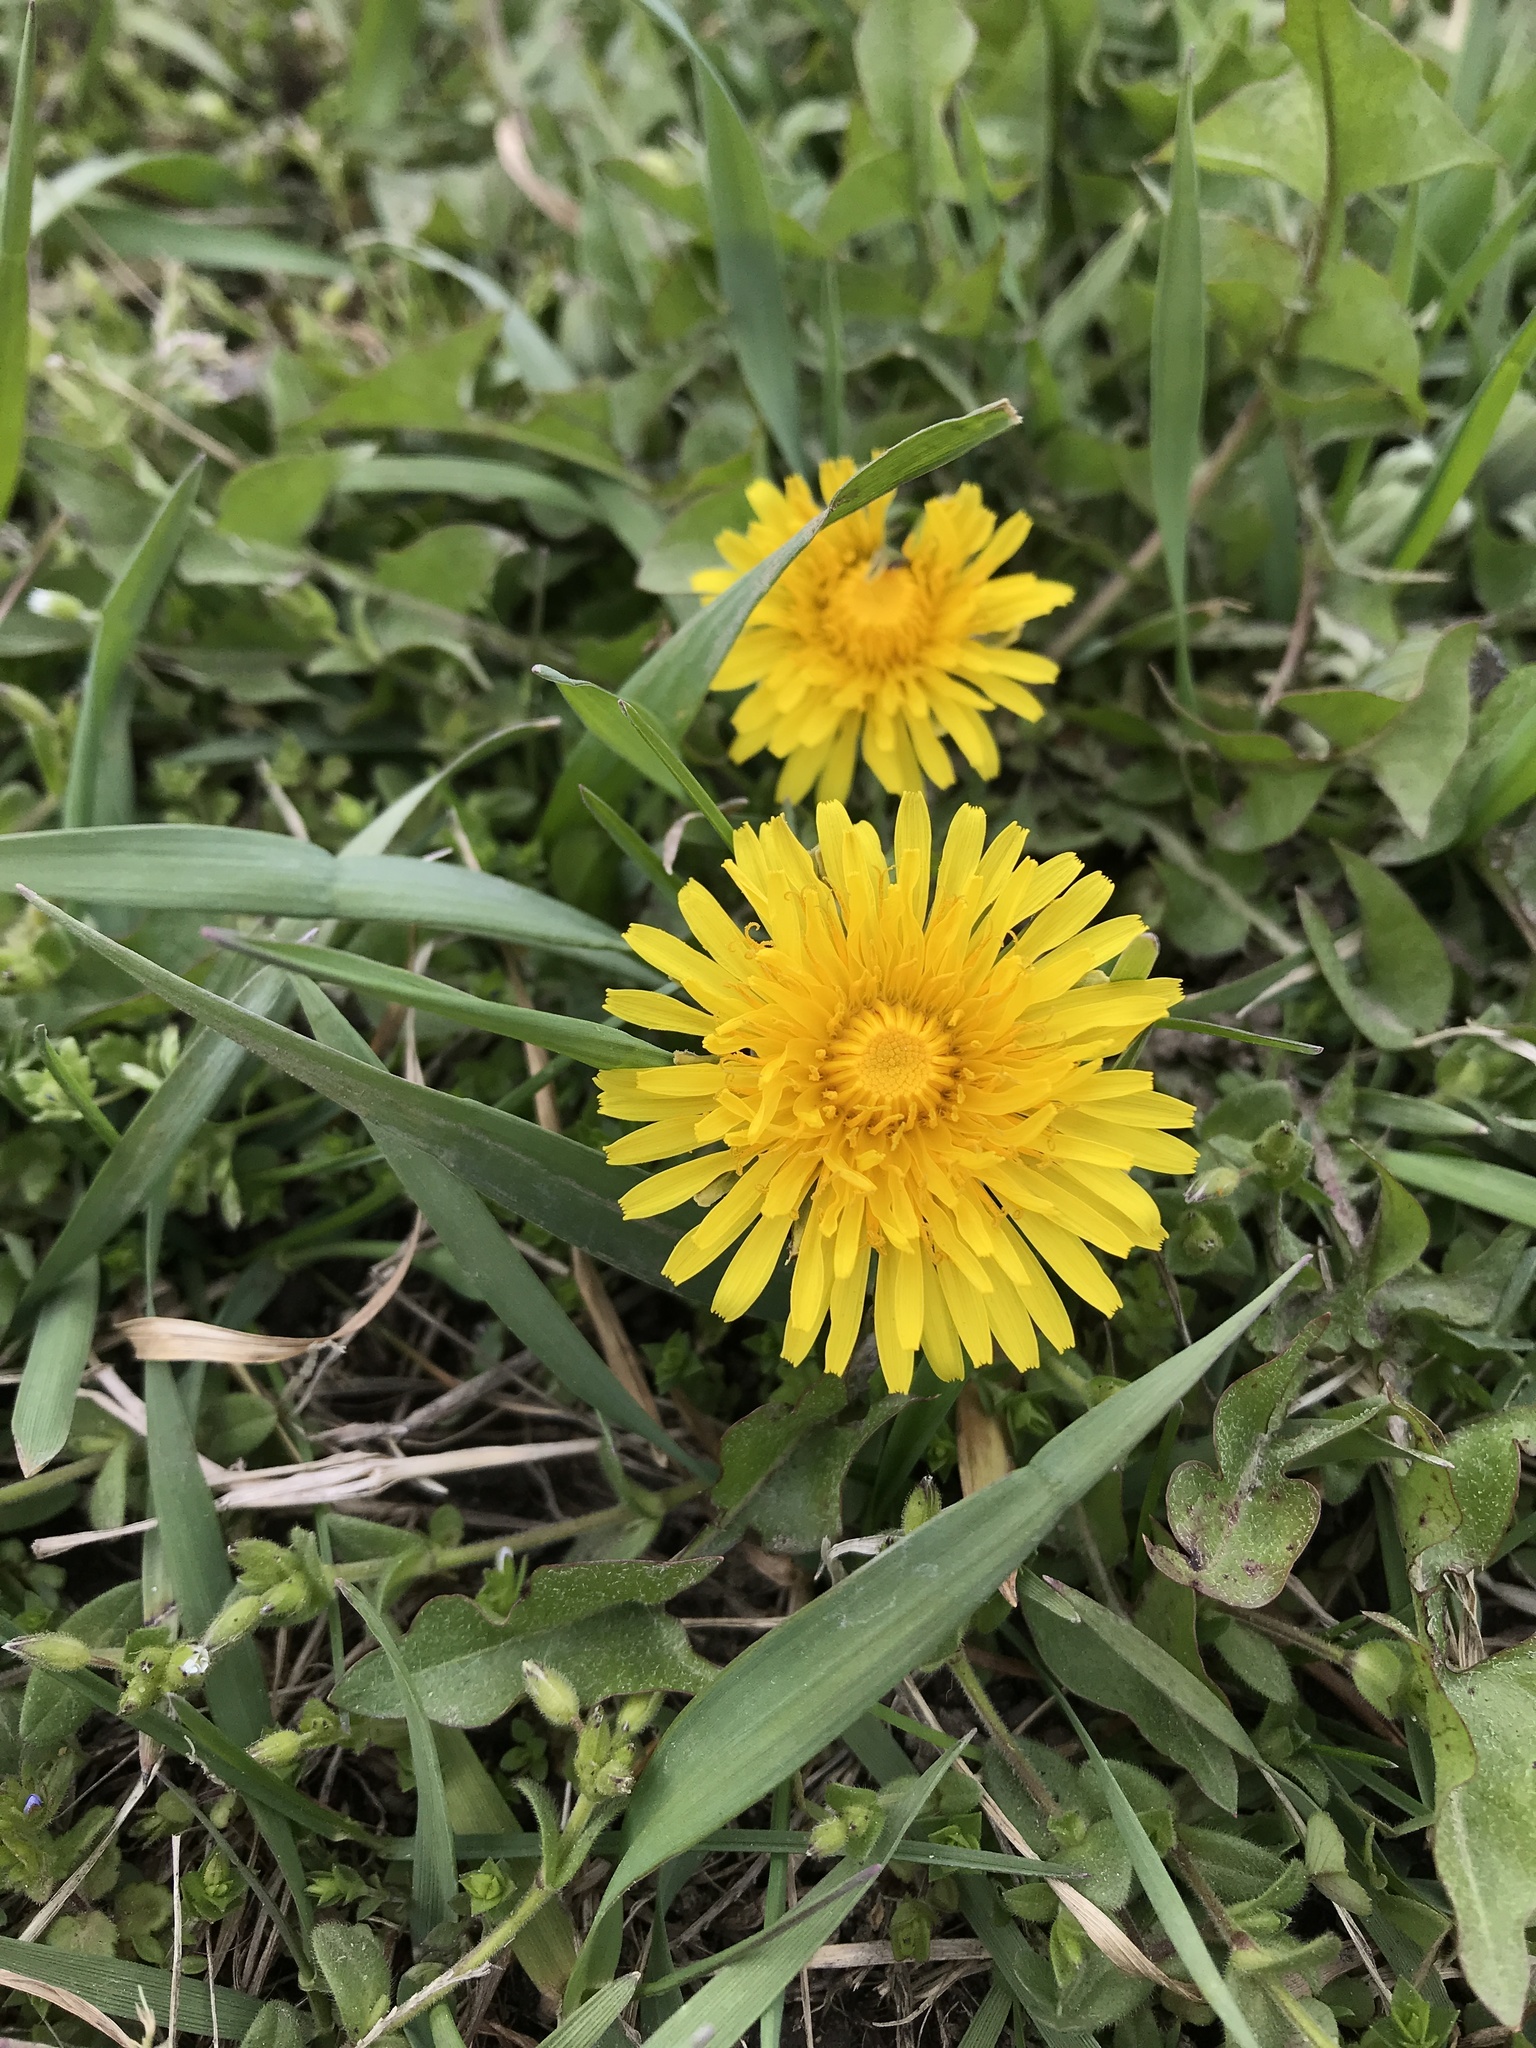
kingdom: Plantae
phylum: Tracheophyta
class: Magnoliopsida
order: Asterales
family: Asteraceae
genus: Taraxacum
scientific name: Taraxacum officinale
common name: Common dandelion
